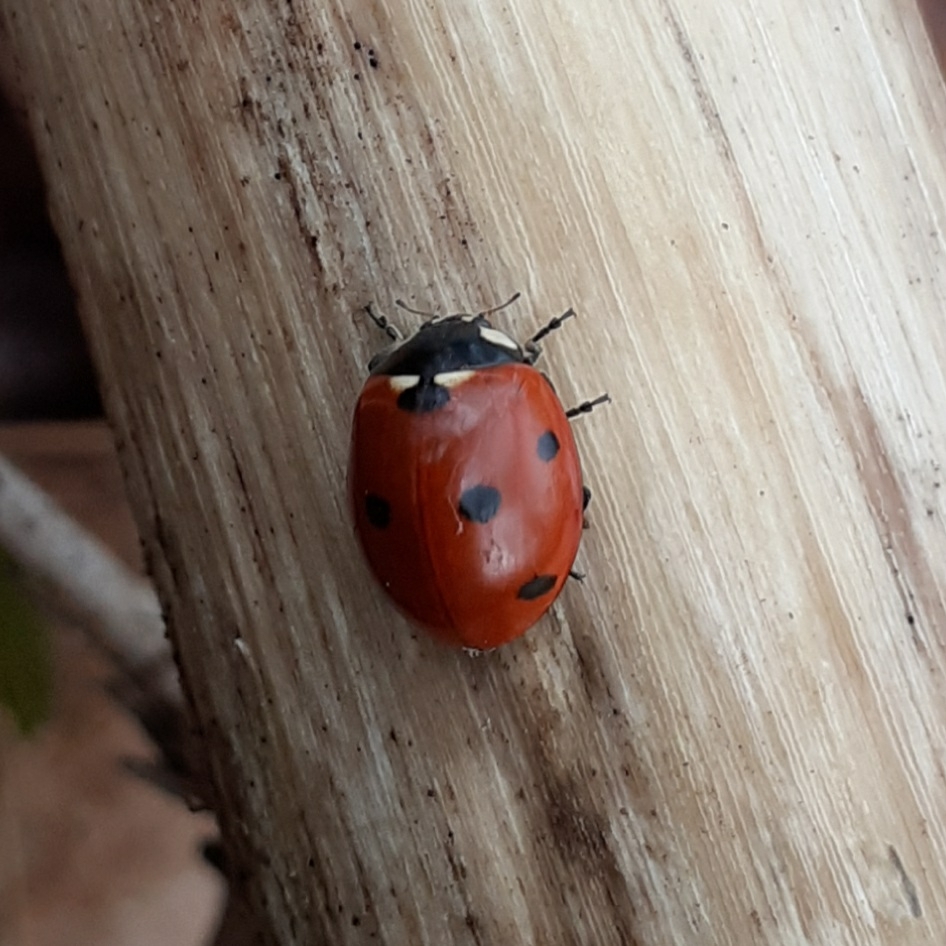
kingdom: Animalia
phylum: Arthropoda
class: Insecta
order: Coleoptera
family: Coccinellidae
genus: Coccinella
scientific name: Coccinella septempunctata
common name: Sevenspotted lady beetle
